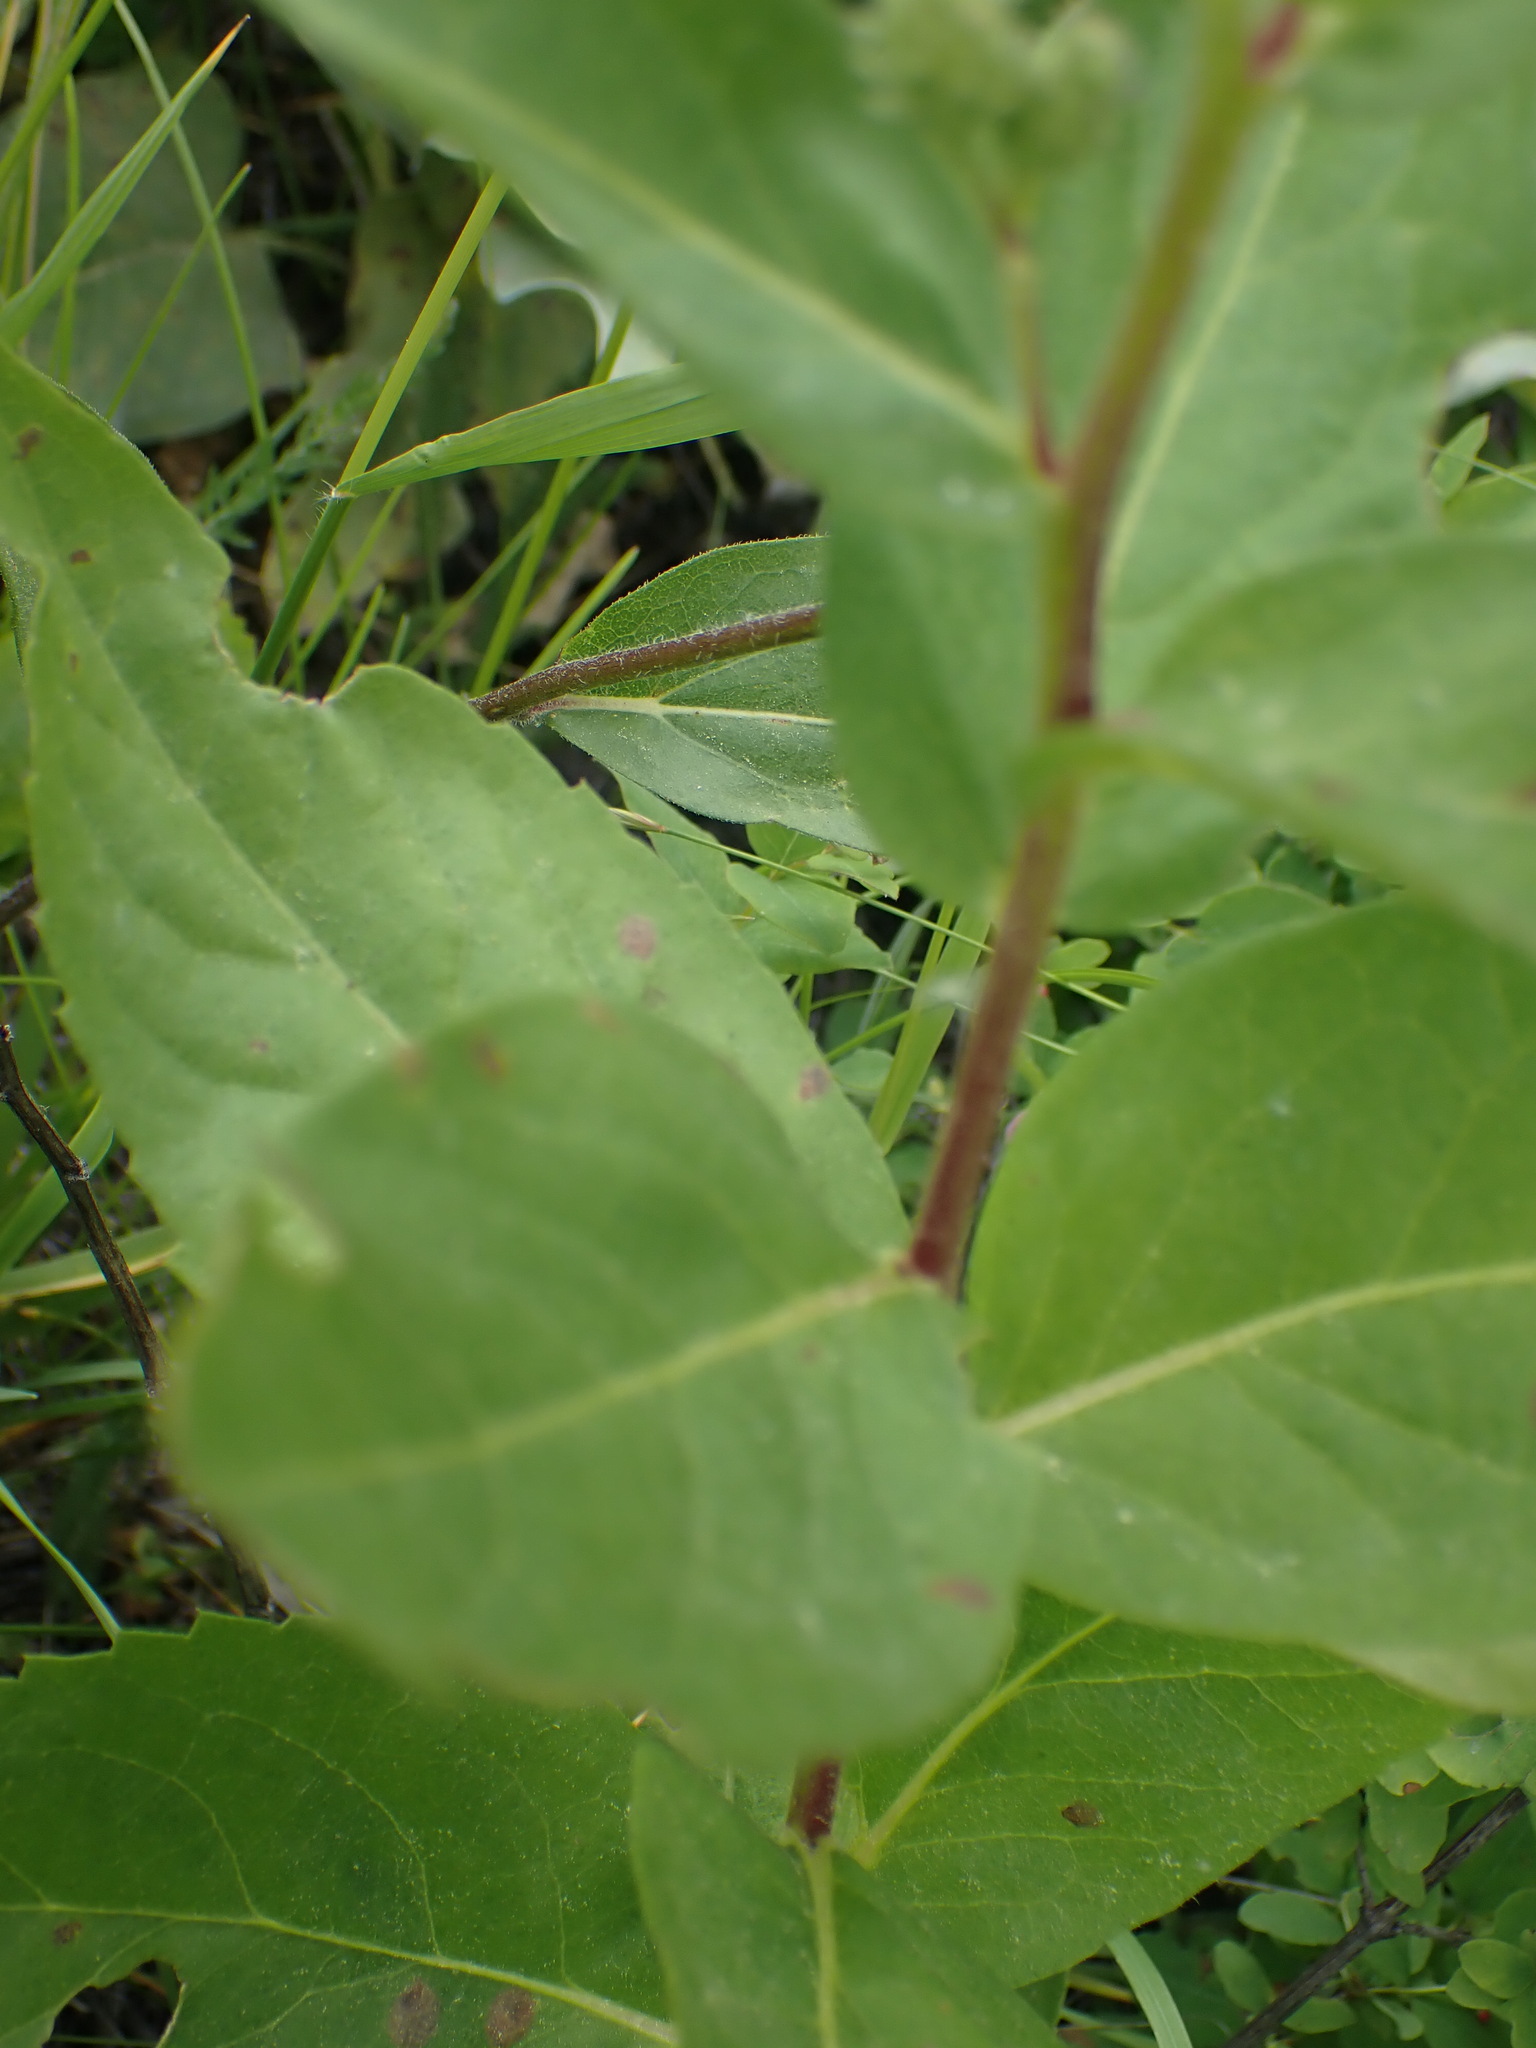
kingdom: Plantae
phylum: Tracheophyta
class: Magnoliopsida
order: Asterales
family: Asteraceae
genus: Eurybia
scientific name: Eurybia conspicua
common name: Showy aster
